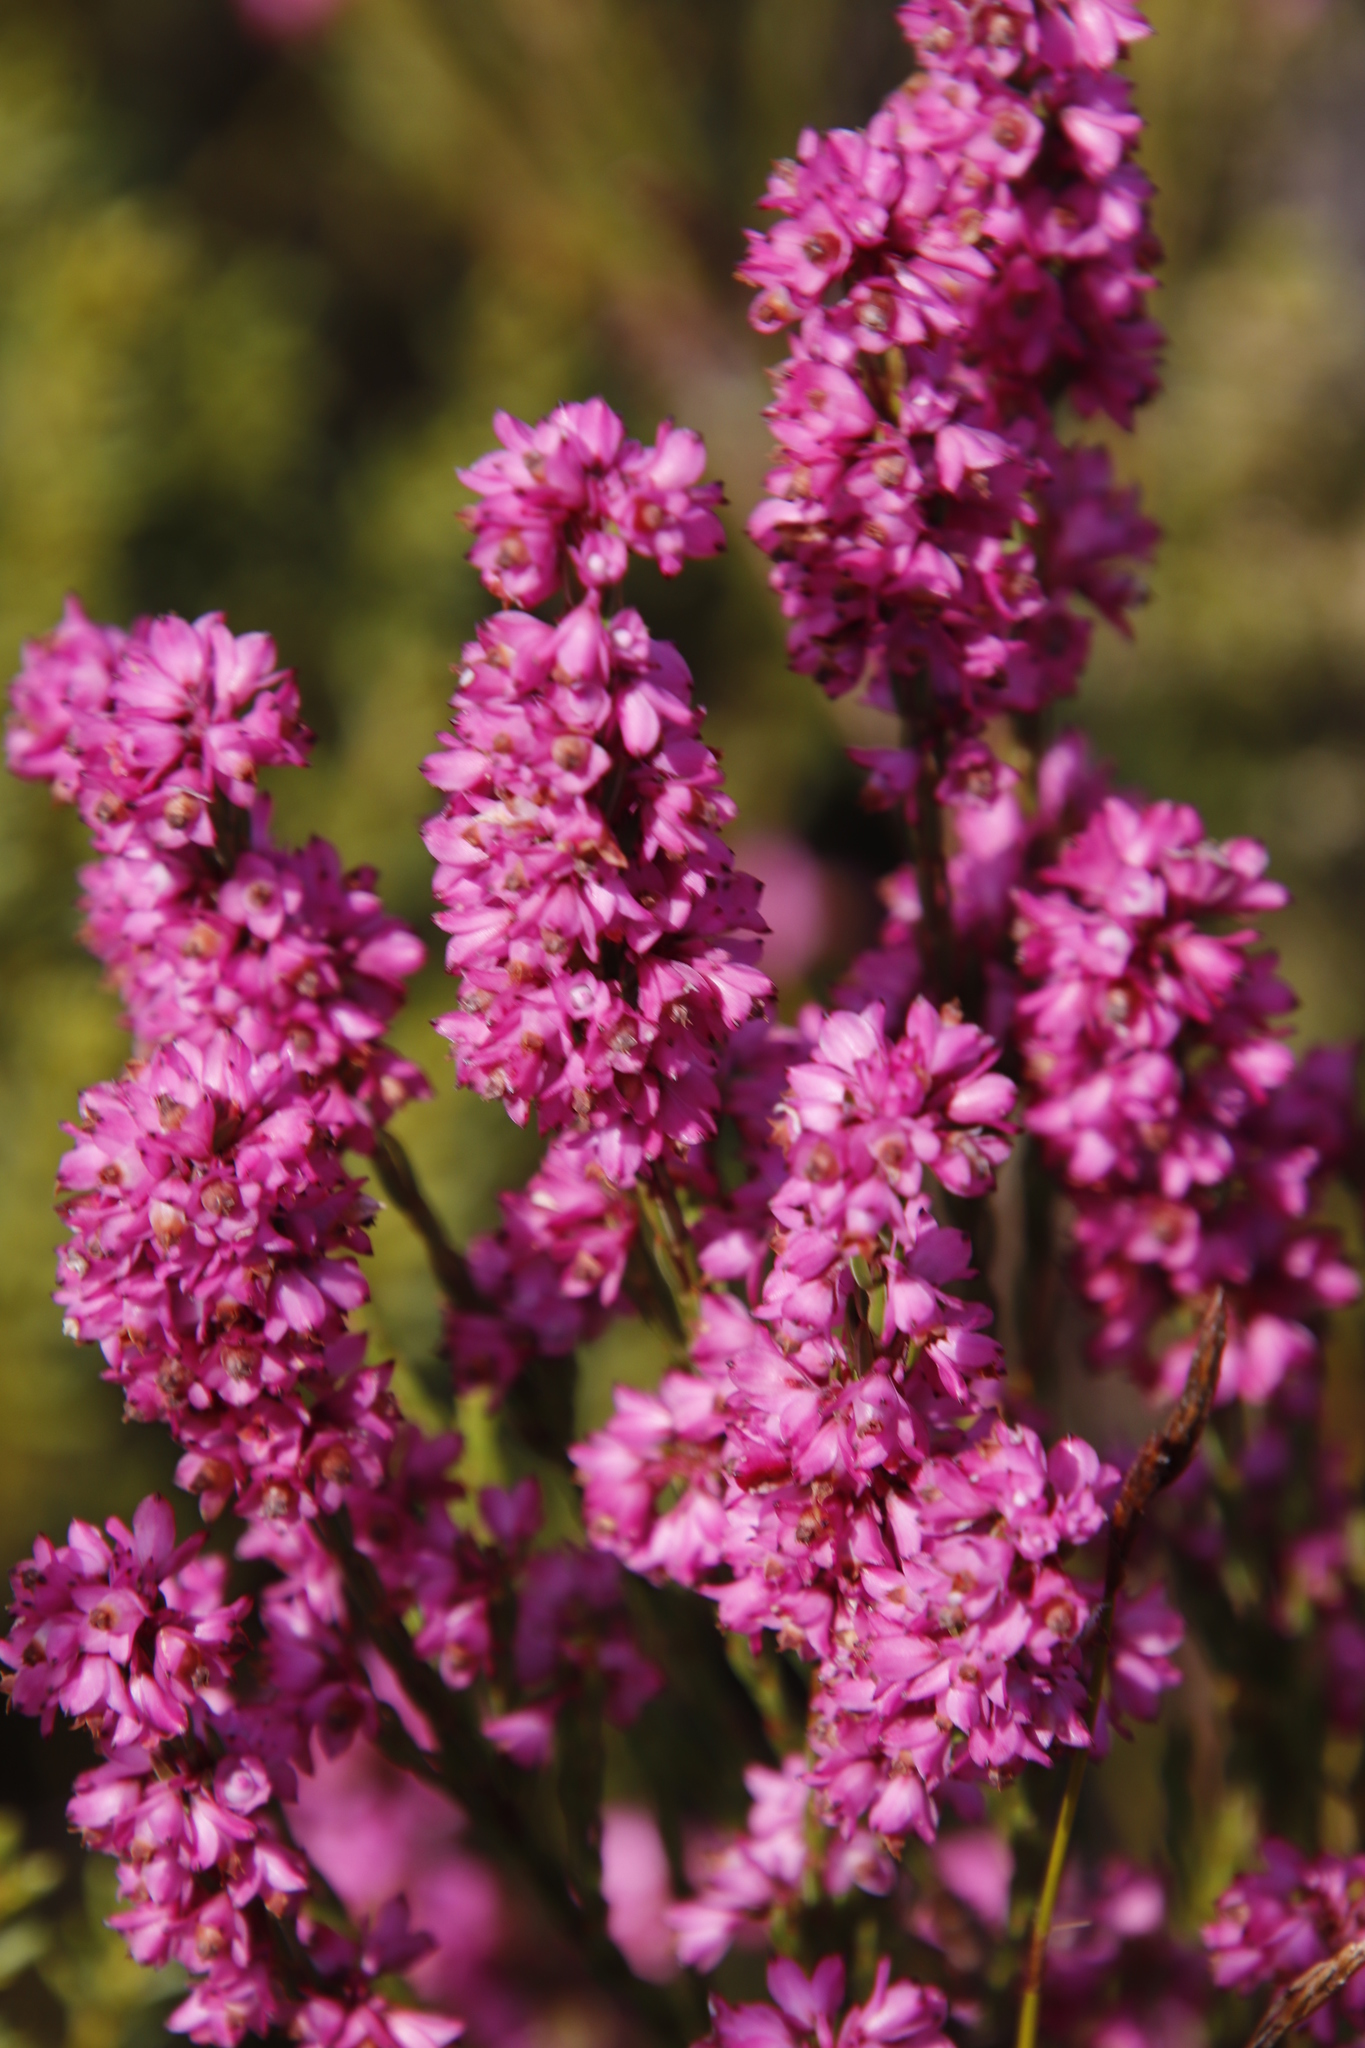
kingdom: Plantae
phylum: Tracheophyta
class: Magnoliopsida
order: Ericales
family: Ericaceae
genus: Erica
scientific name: Erica corifolia
